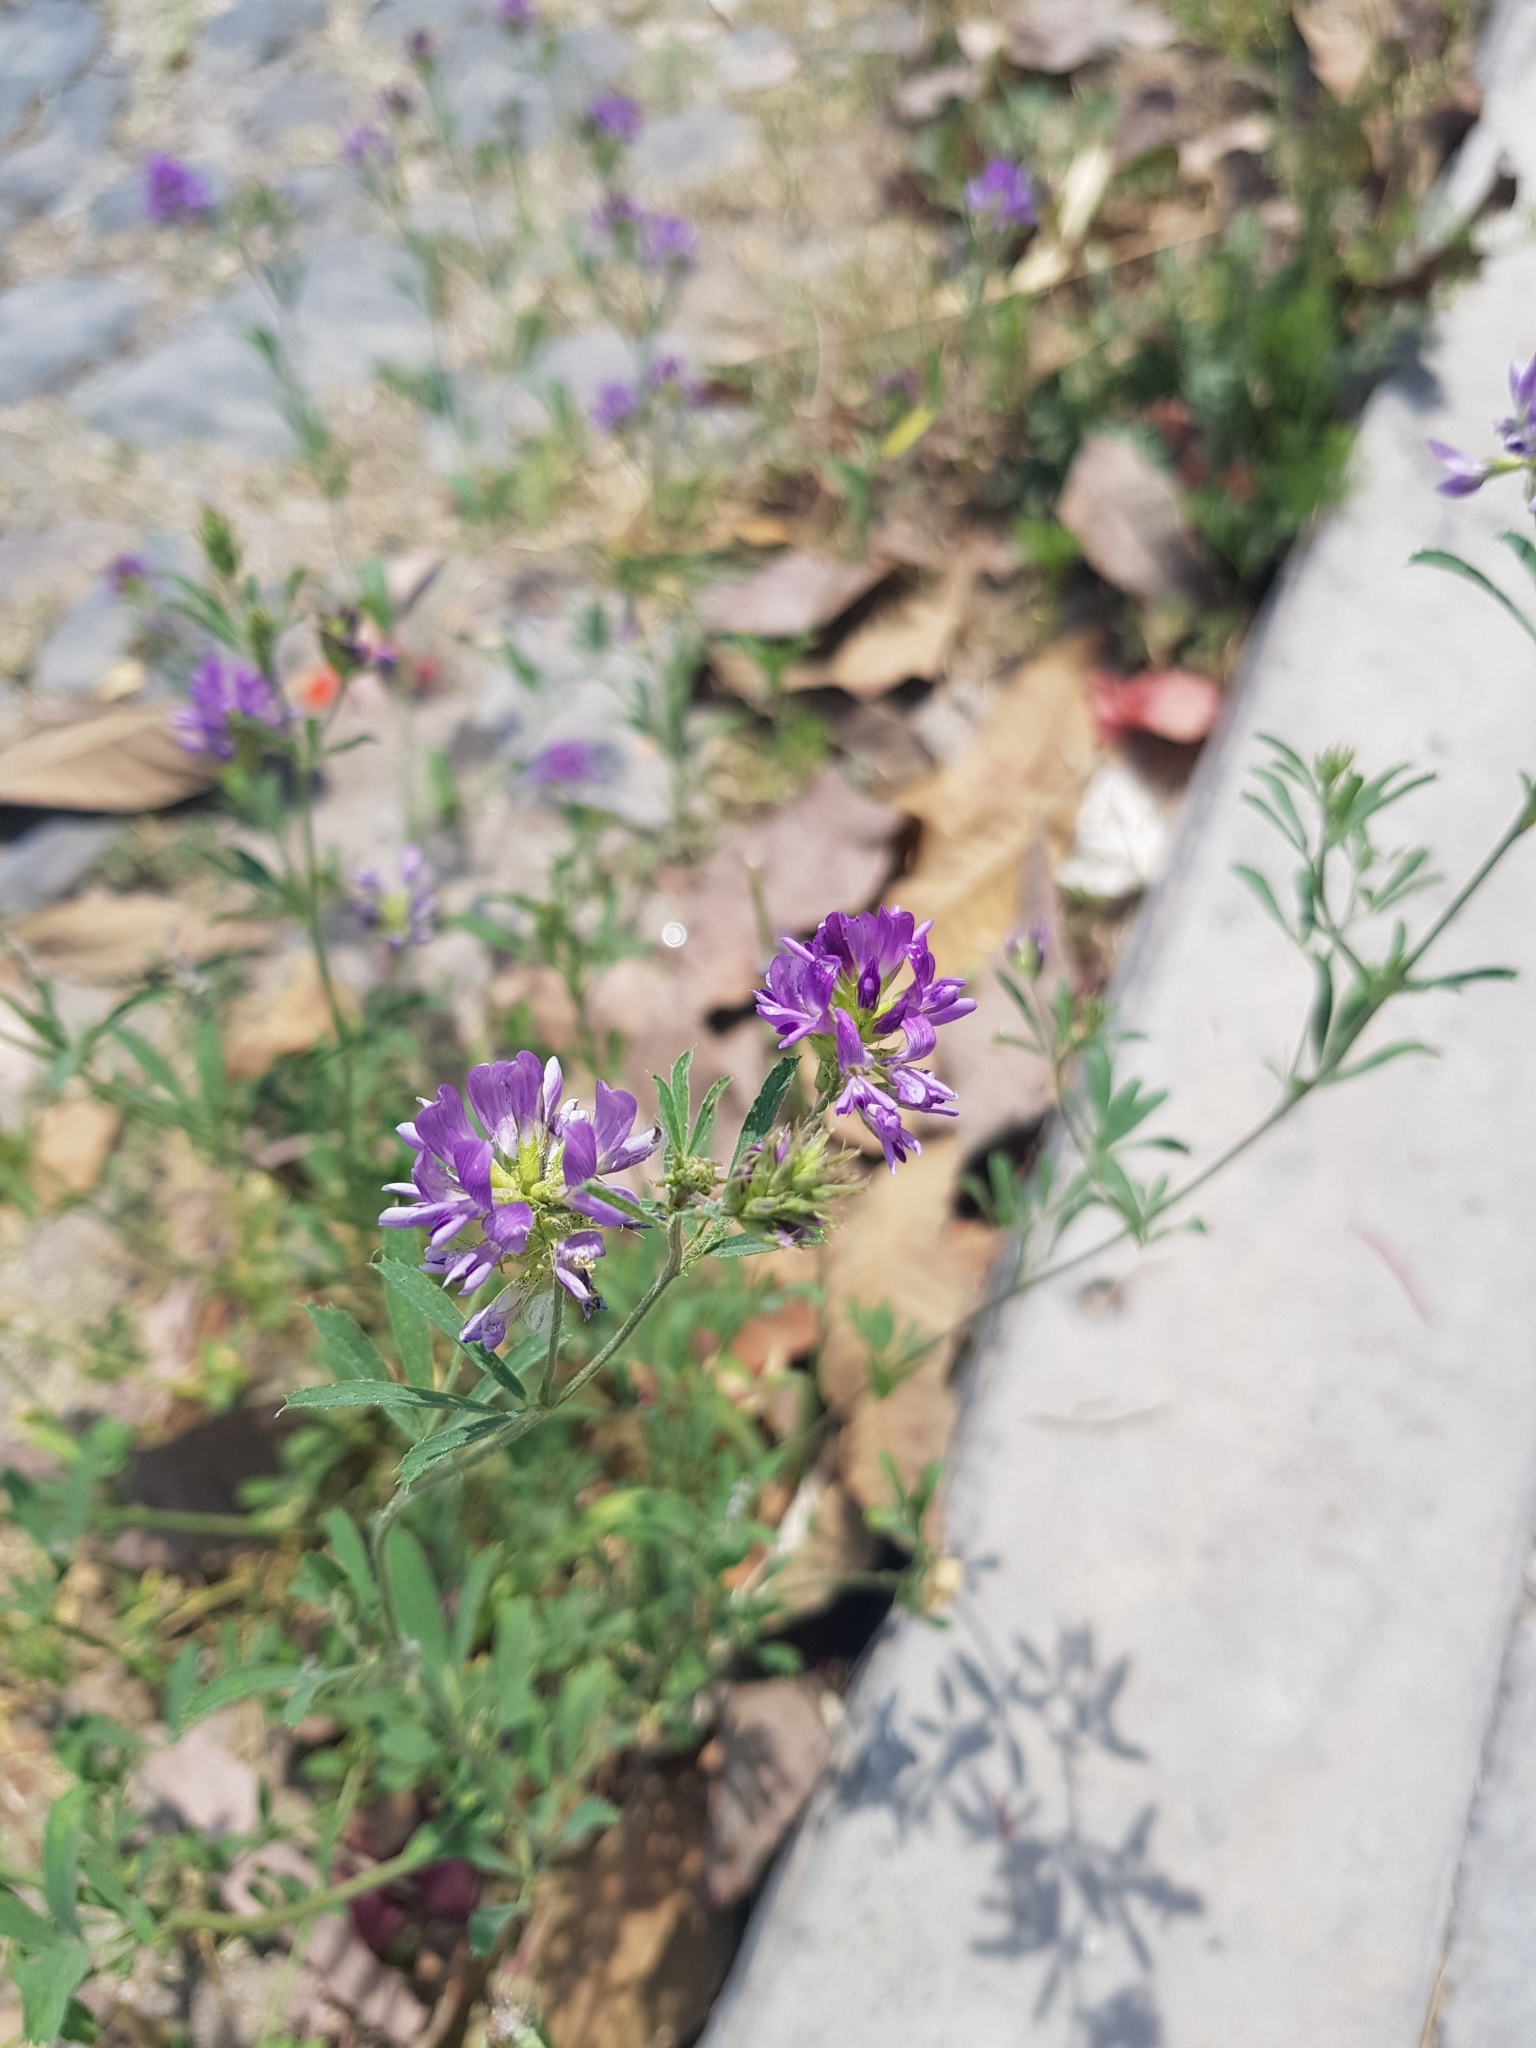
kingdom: Plantae
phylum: Tracheophyta
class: Magnoliopsida
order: Fabales
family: Fabaceae
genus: Medicago
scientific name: Medicago sativa
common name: Alfalfa
